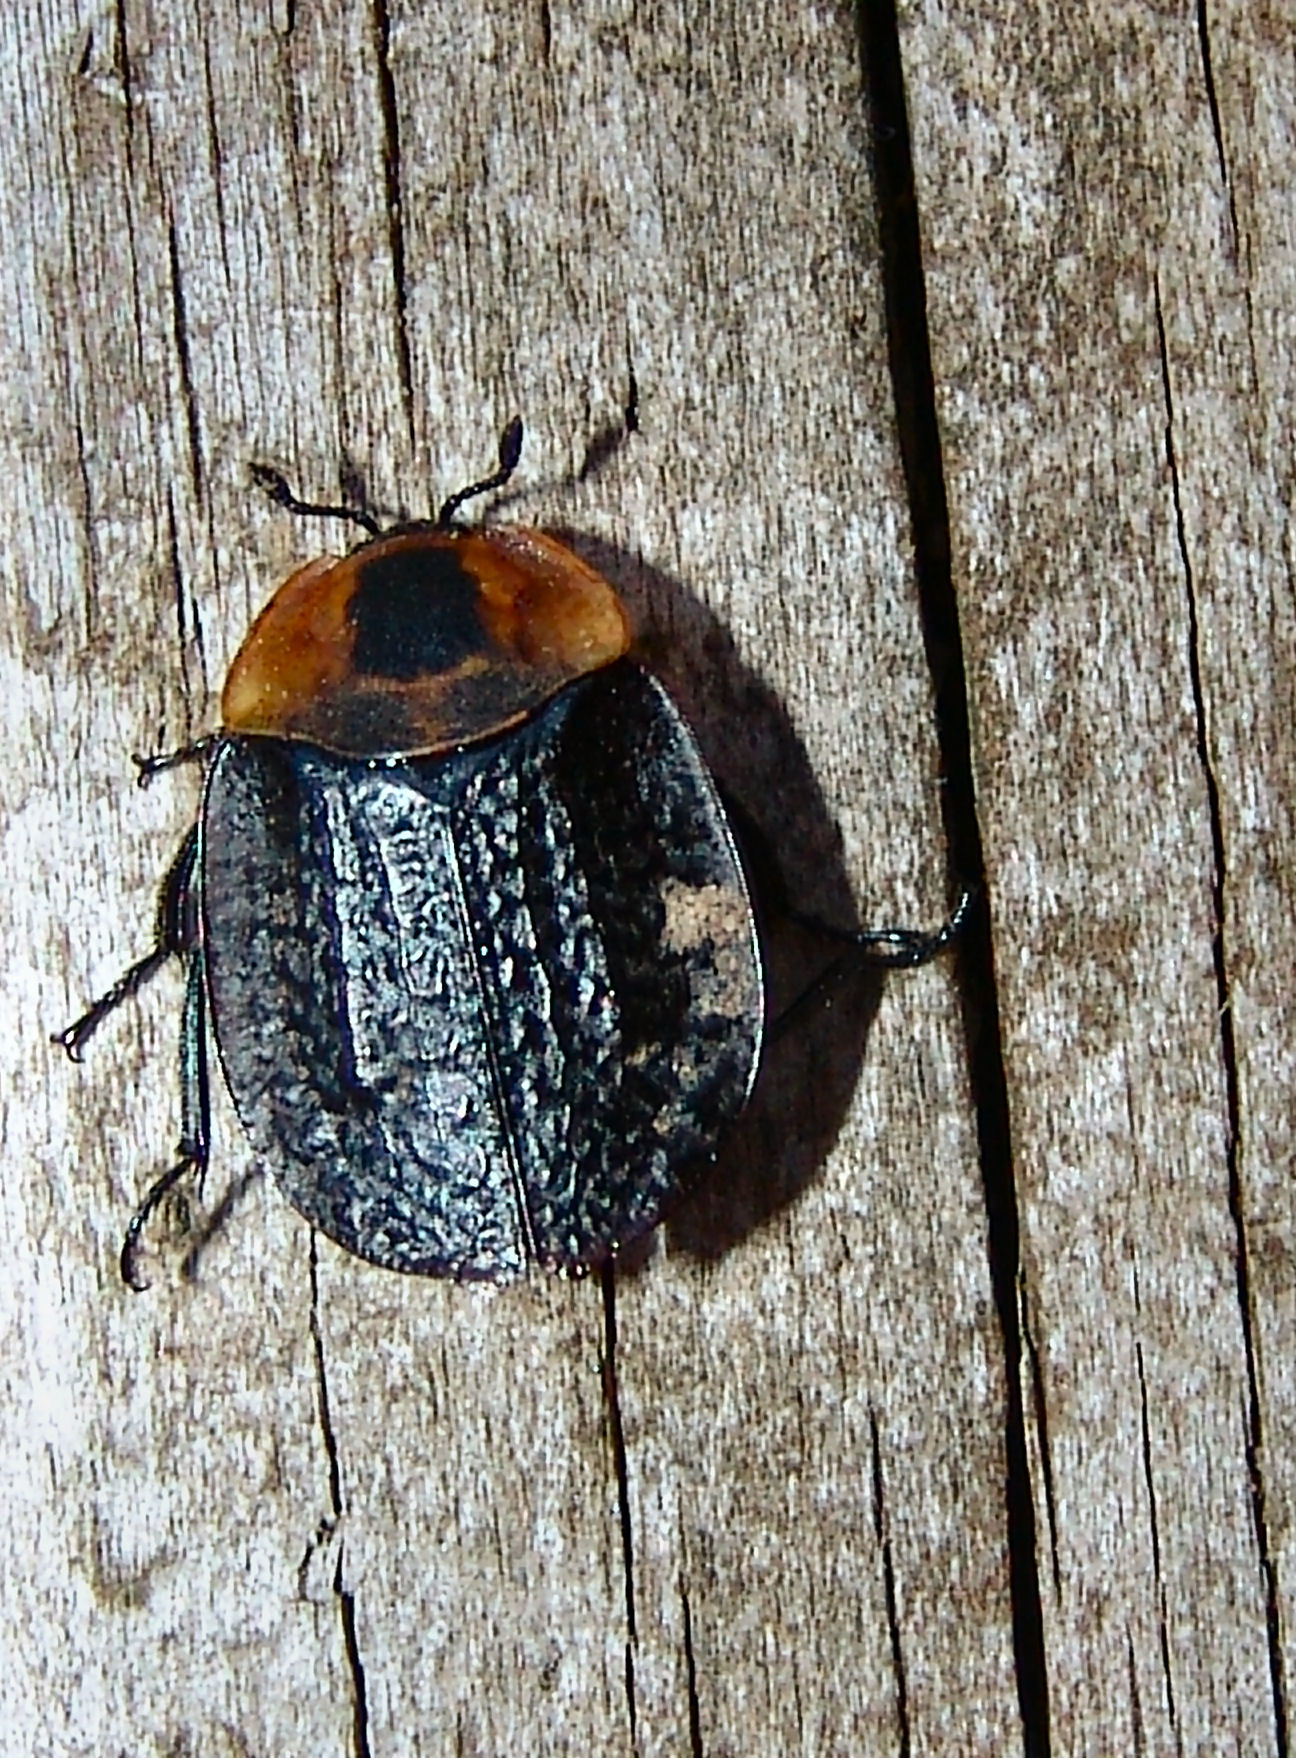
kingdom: Animalia
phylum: Arthropoda
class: Insecta
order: Coleoptera
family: Staphylinidae
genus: Necrophila
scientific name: Necrophila americana
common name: American carrion beetle
